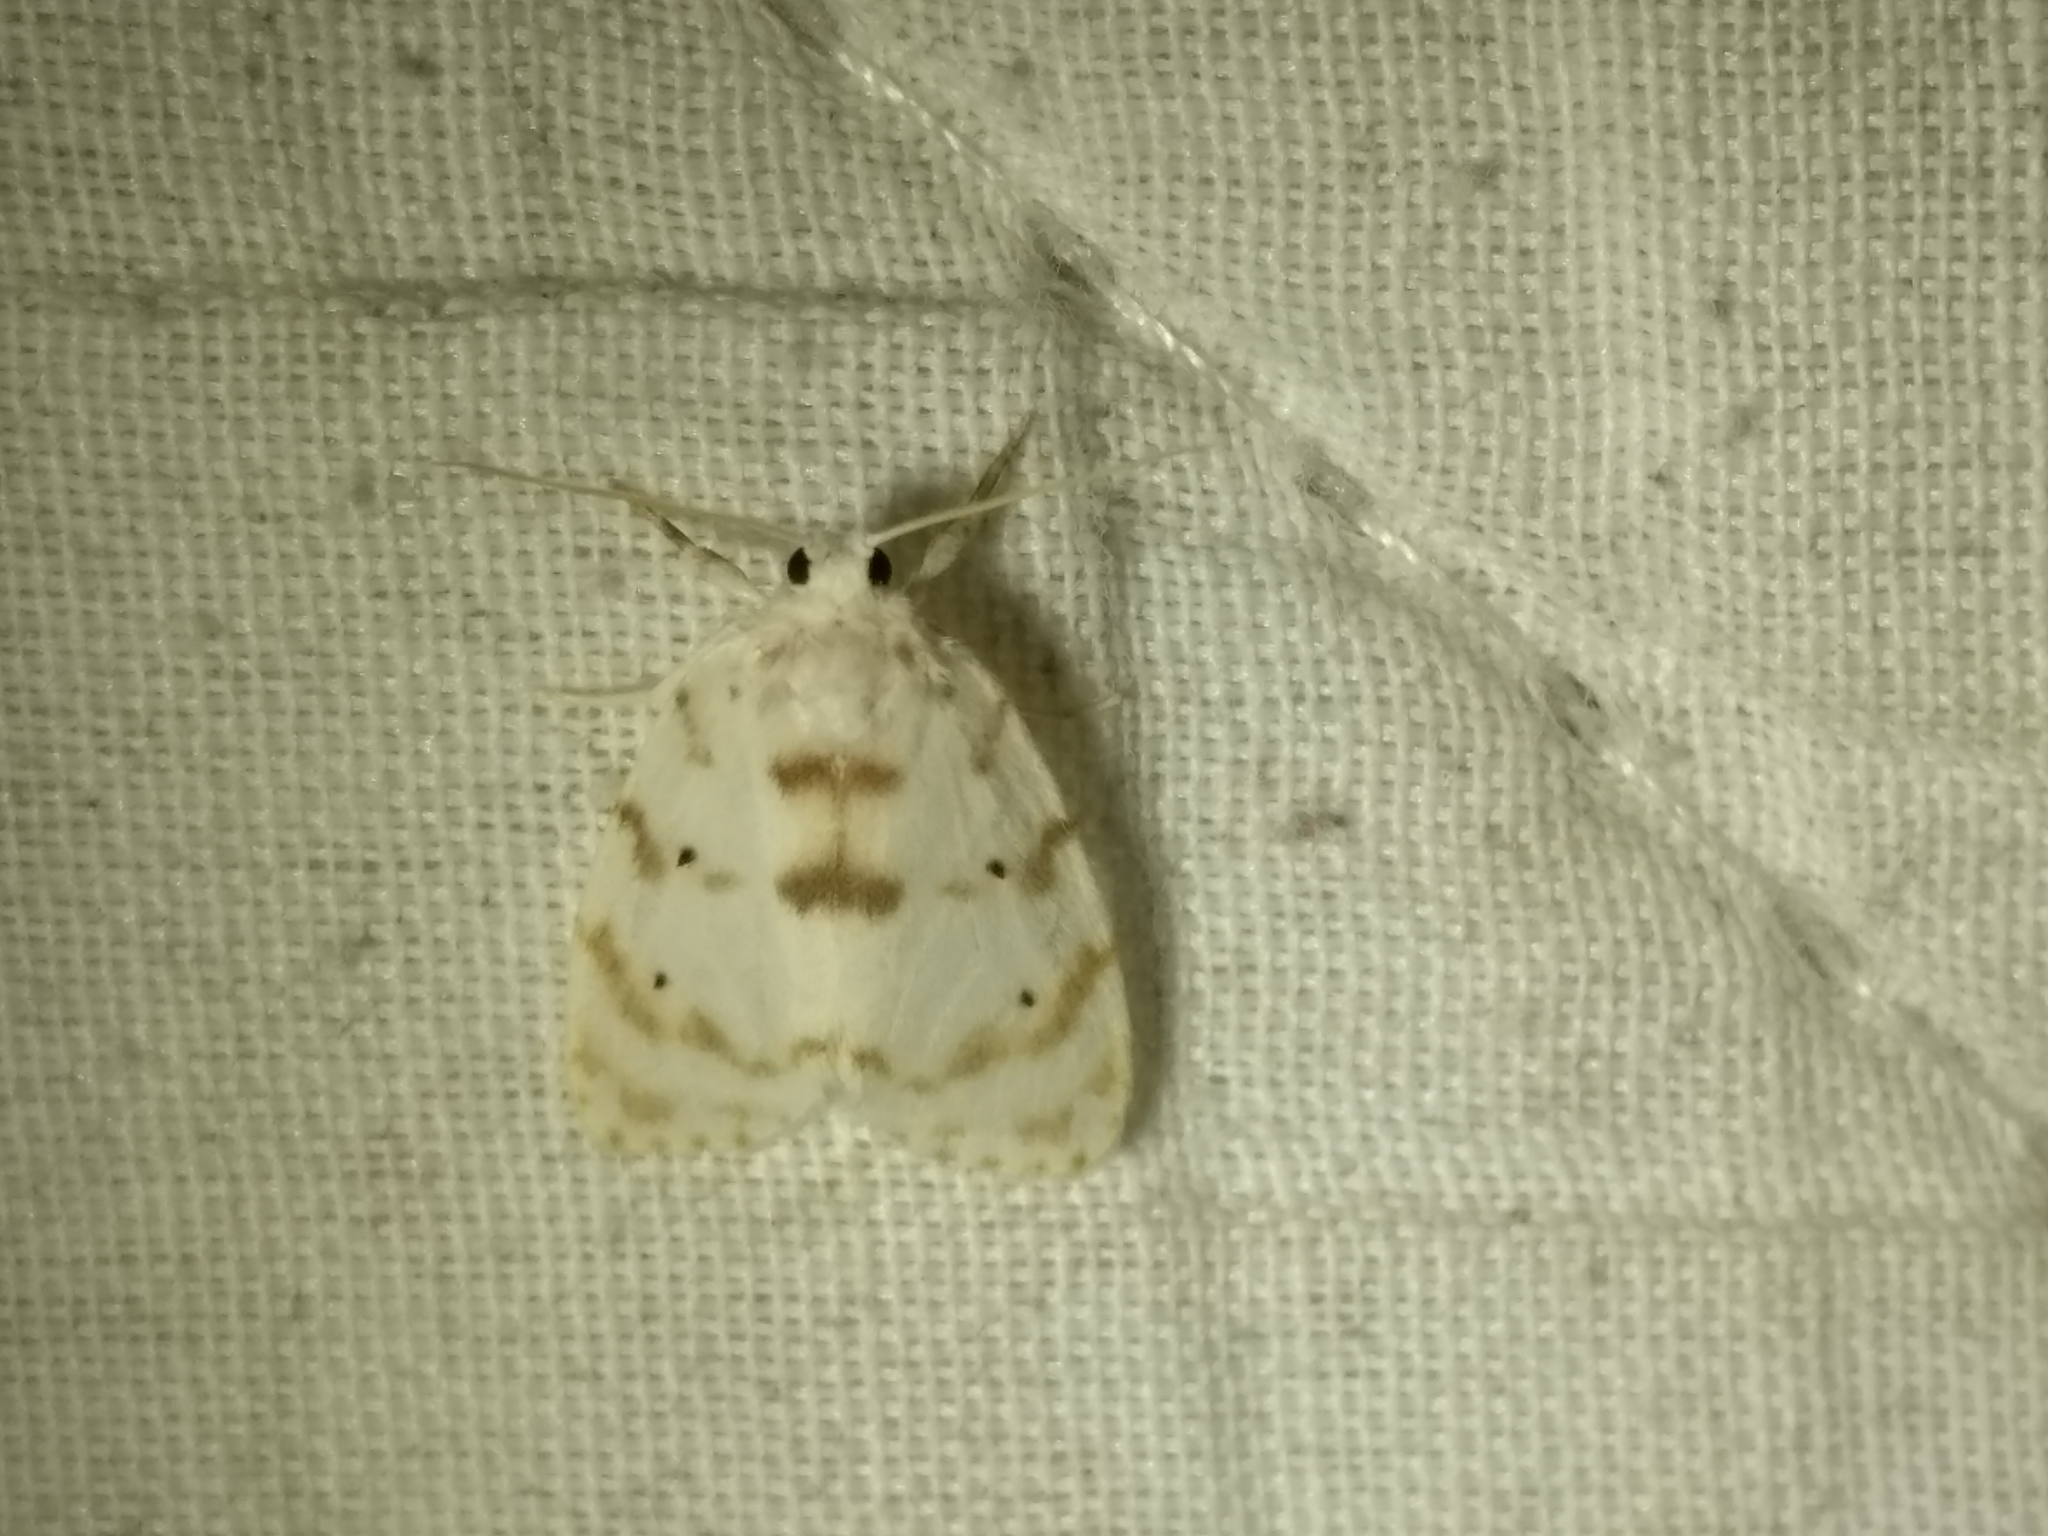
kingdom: Animalia
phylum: Arthropoda
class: Insecta
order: Lepidoptera
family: Erebidae
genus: Schistophleps
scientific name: Schistophleps albida
